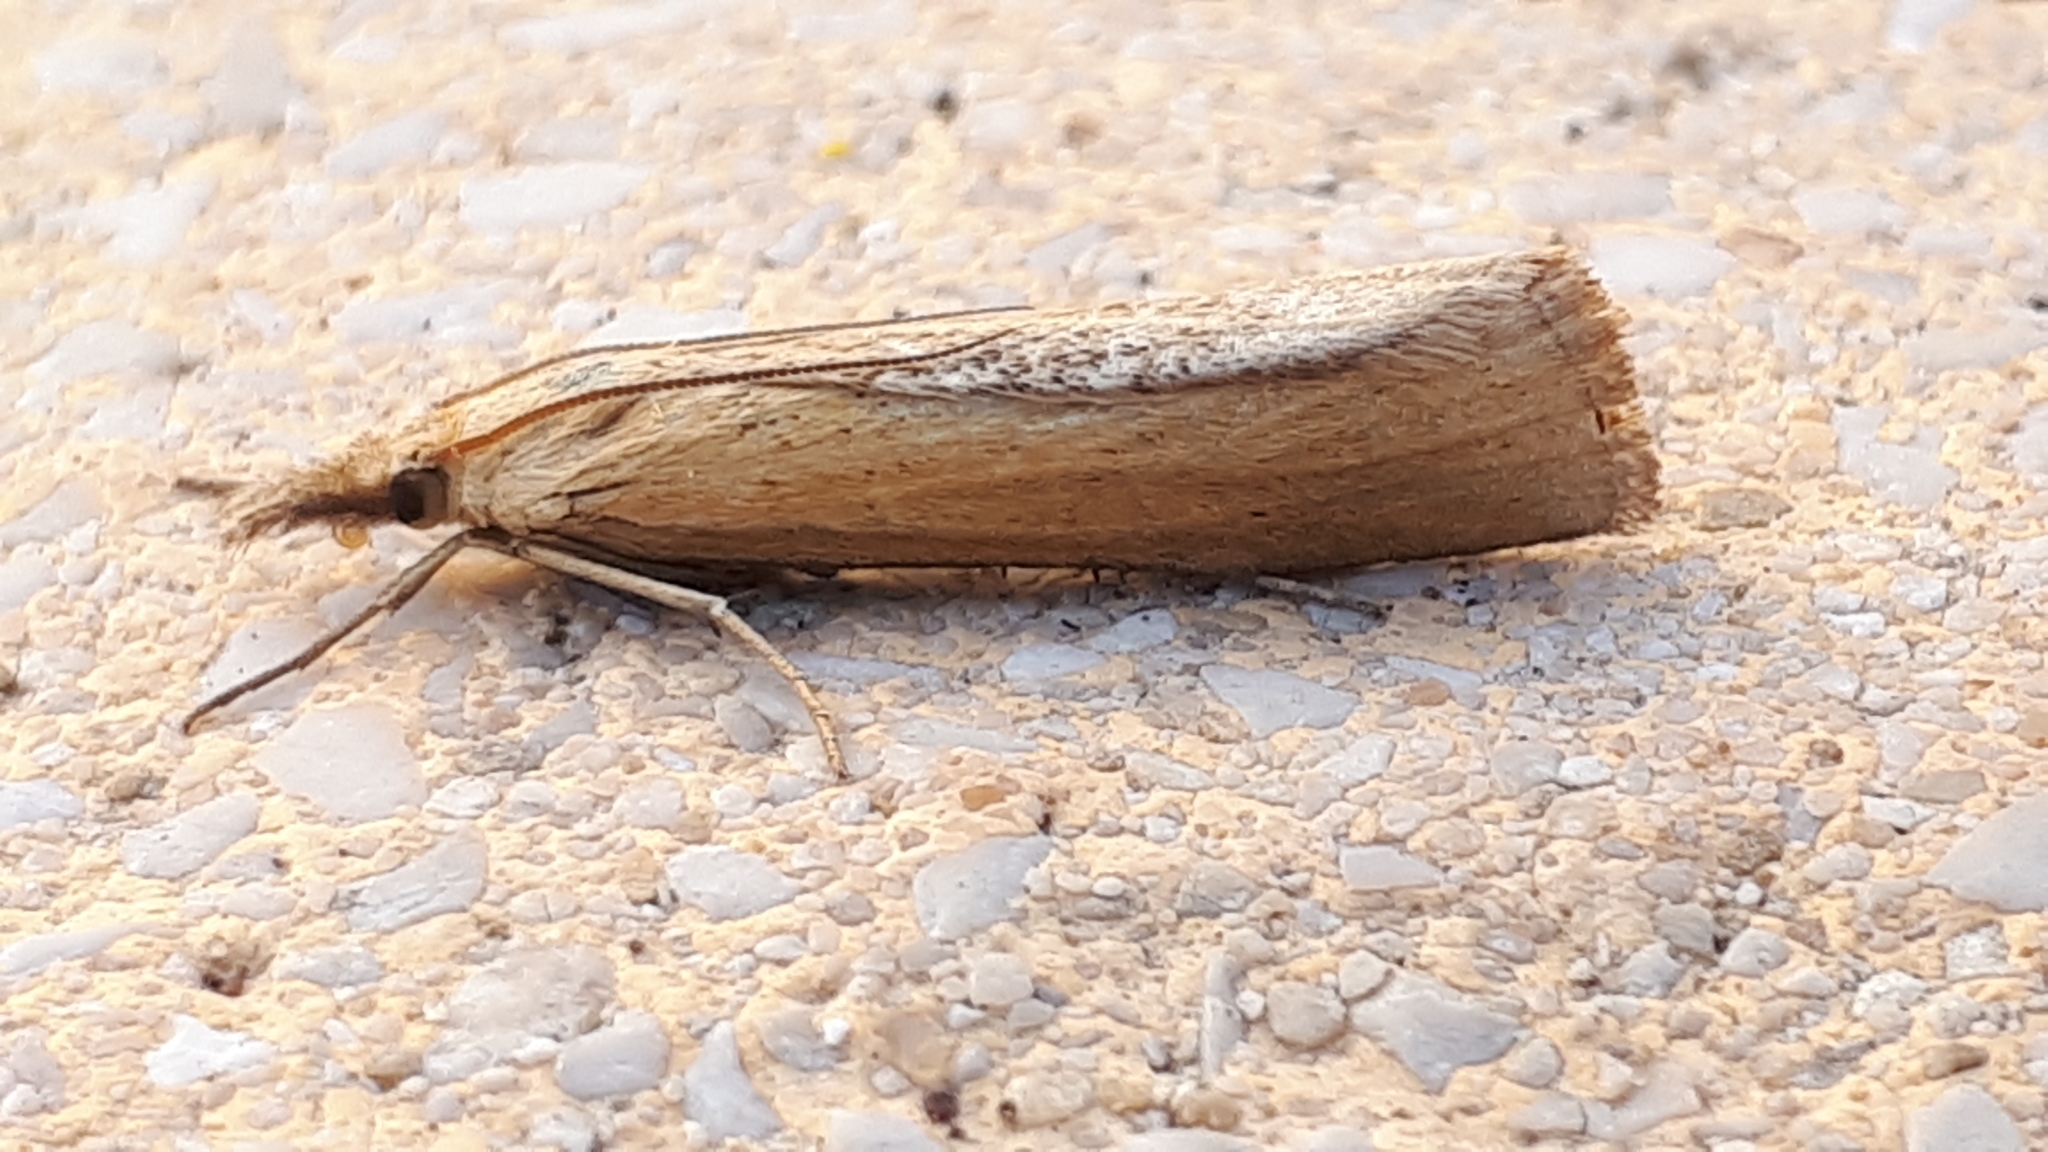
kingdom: Animalia
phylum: Arthropoda
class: Insecta
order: Lepidoptera
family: Crambidae
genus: Pediasia
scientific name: Pediasia luteella
